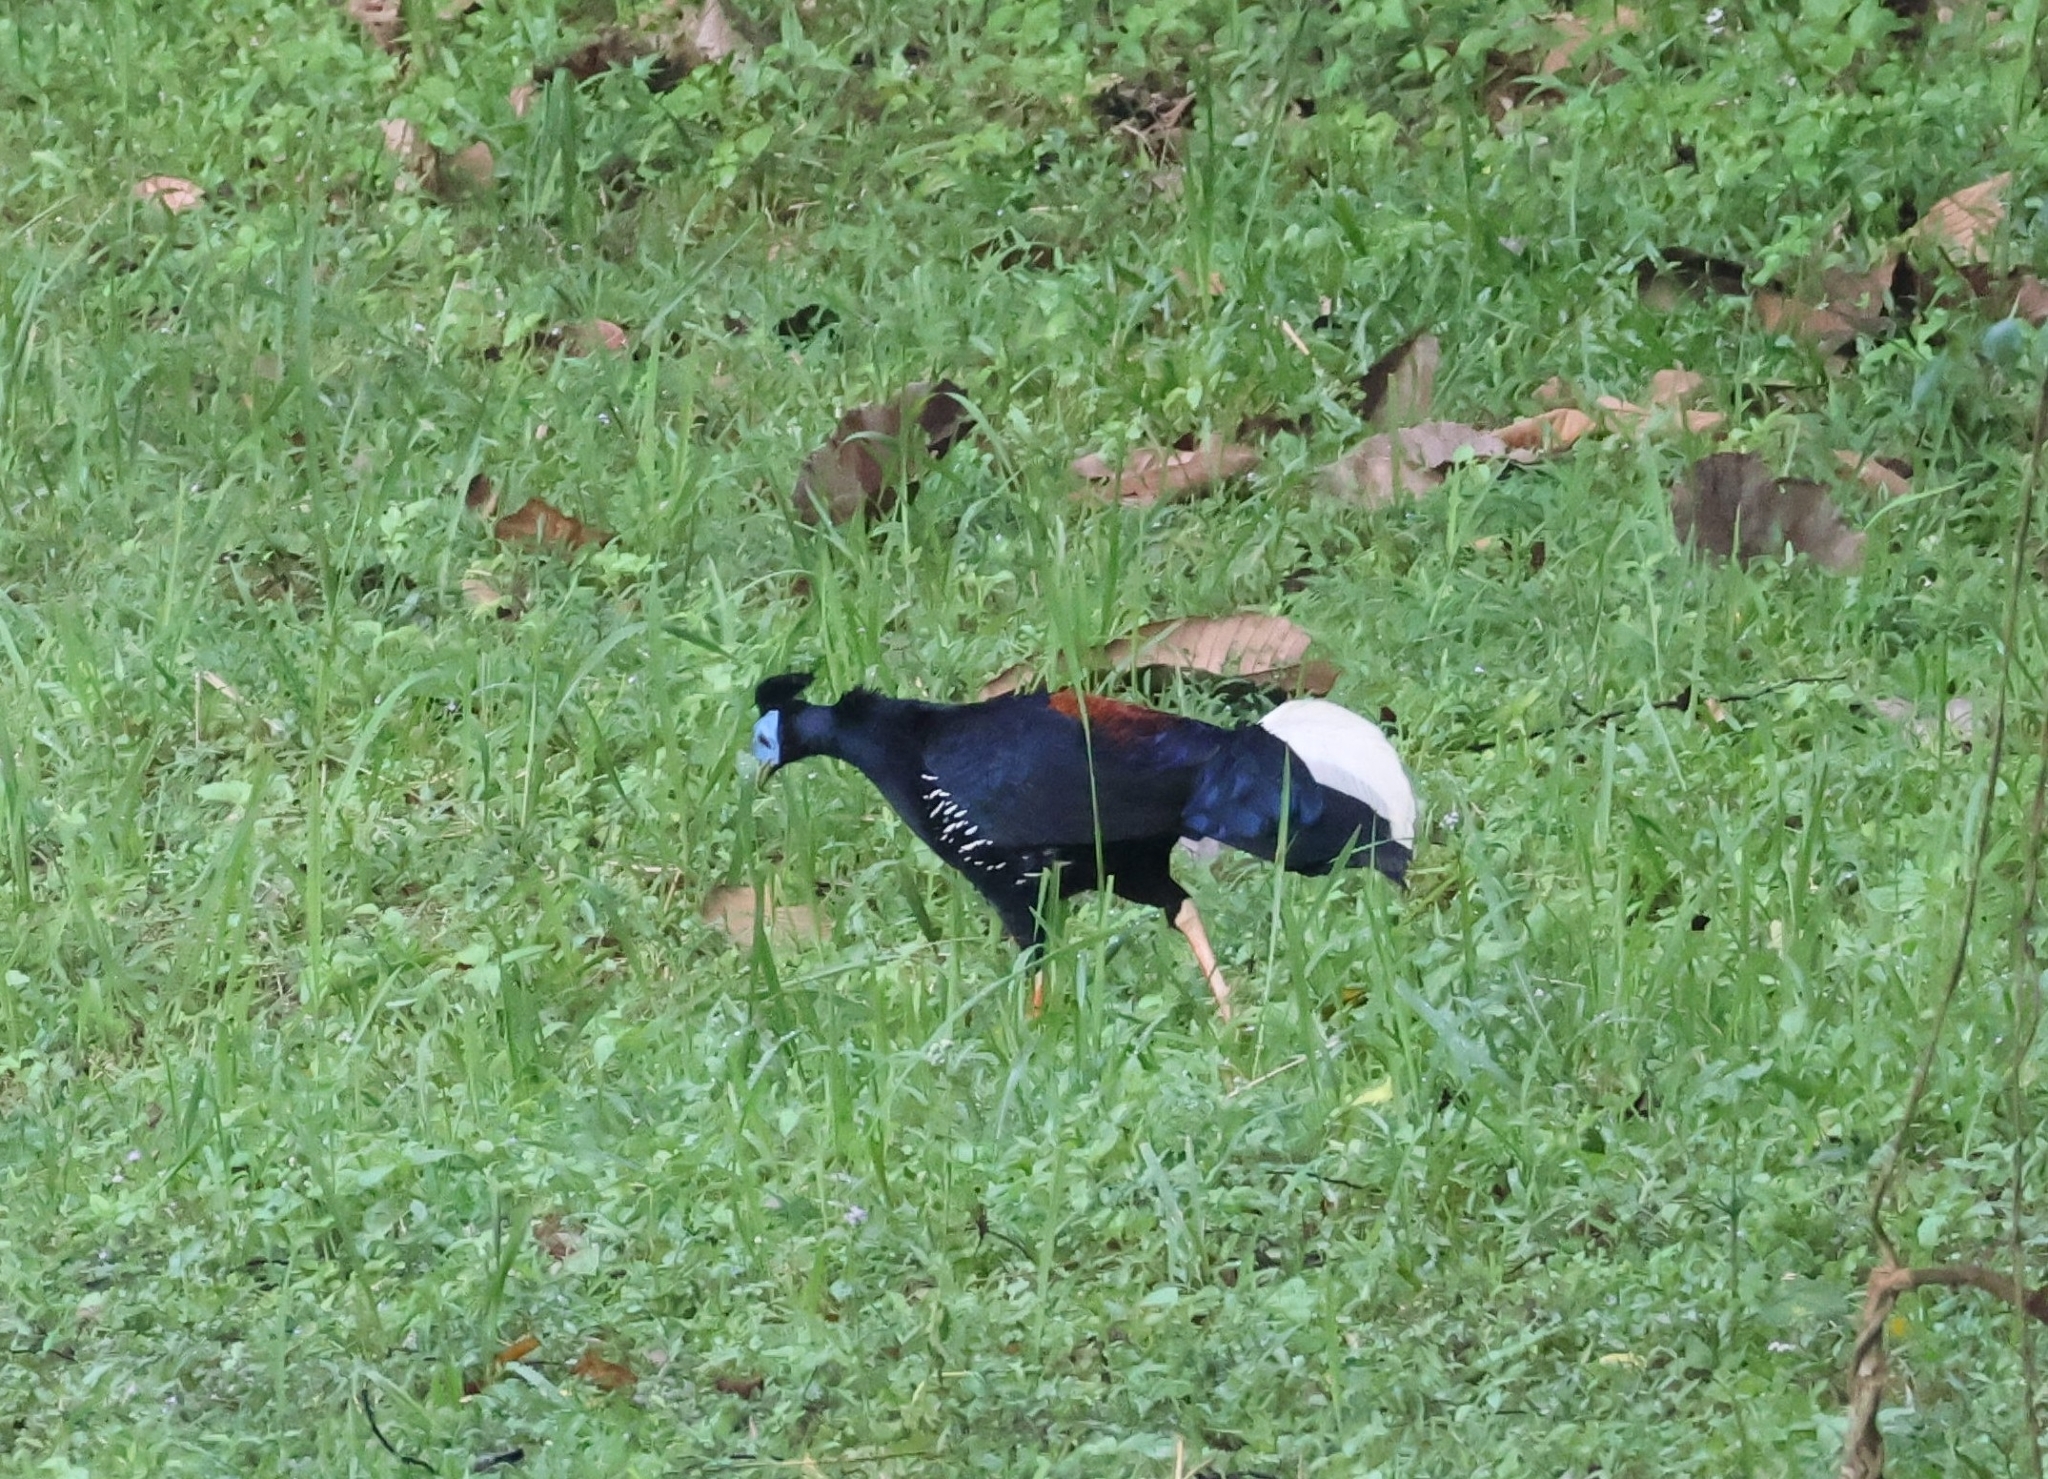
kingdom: Animalia
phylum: Chordata
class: Aves
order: Galliformes
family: Phasianidae
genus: Lophura
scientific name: Lophura ignita
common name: Crested fireback
